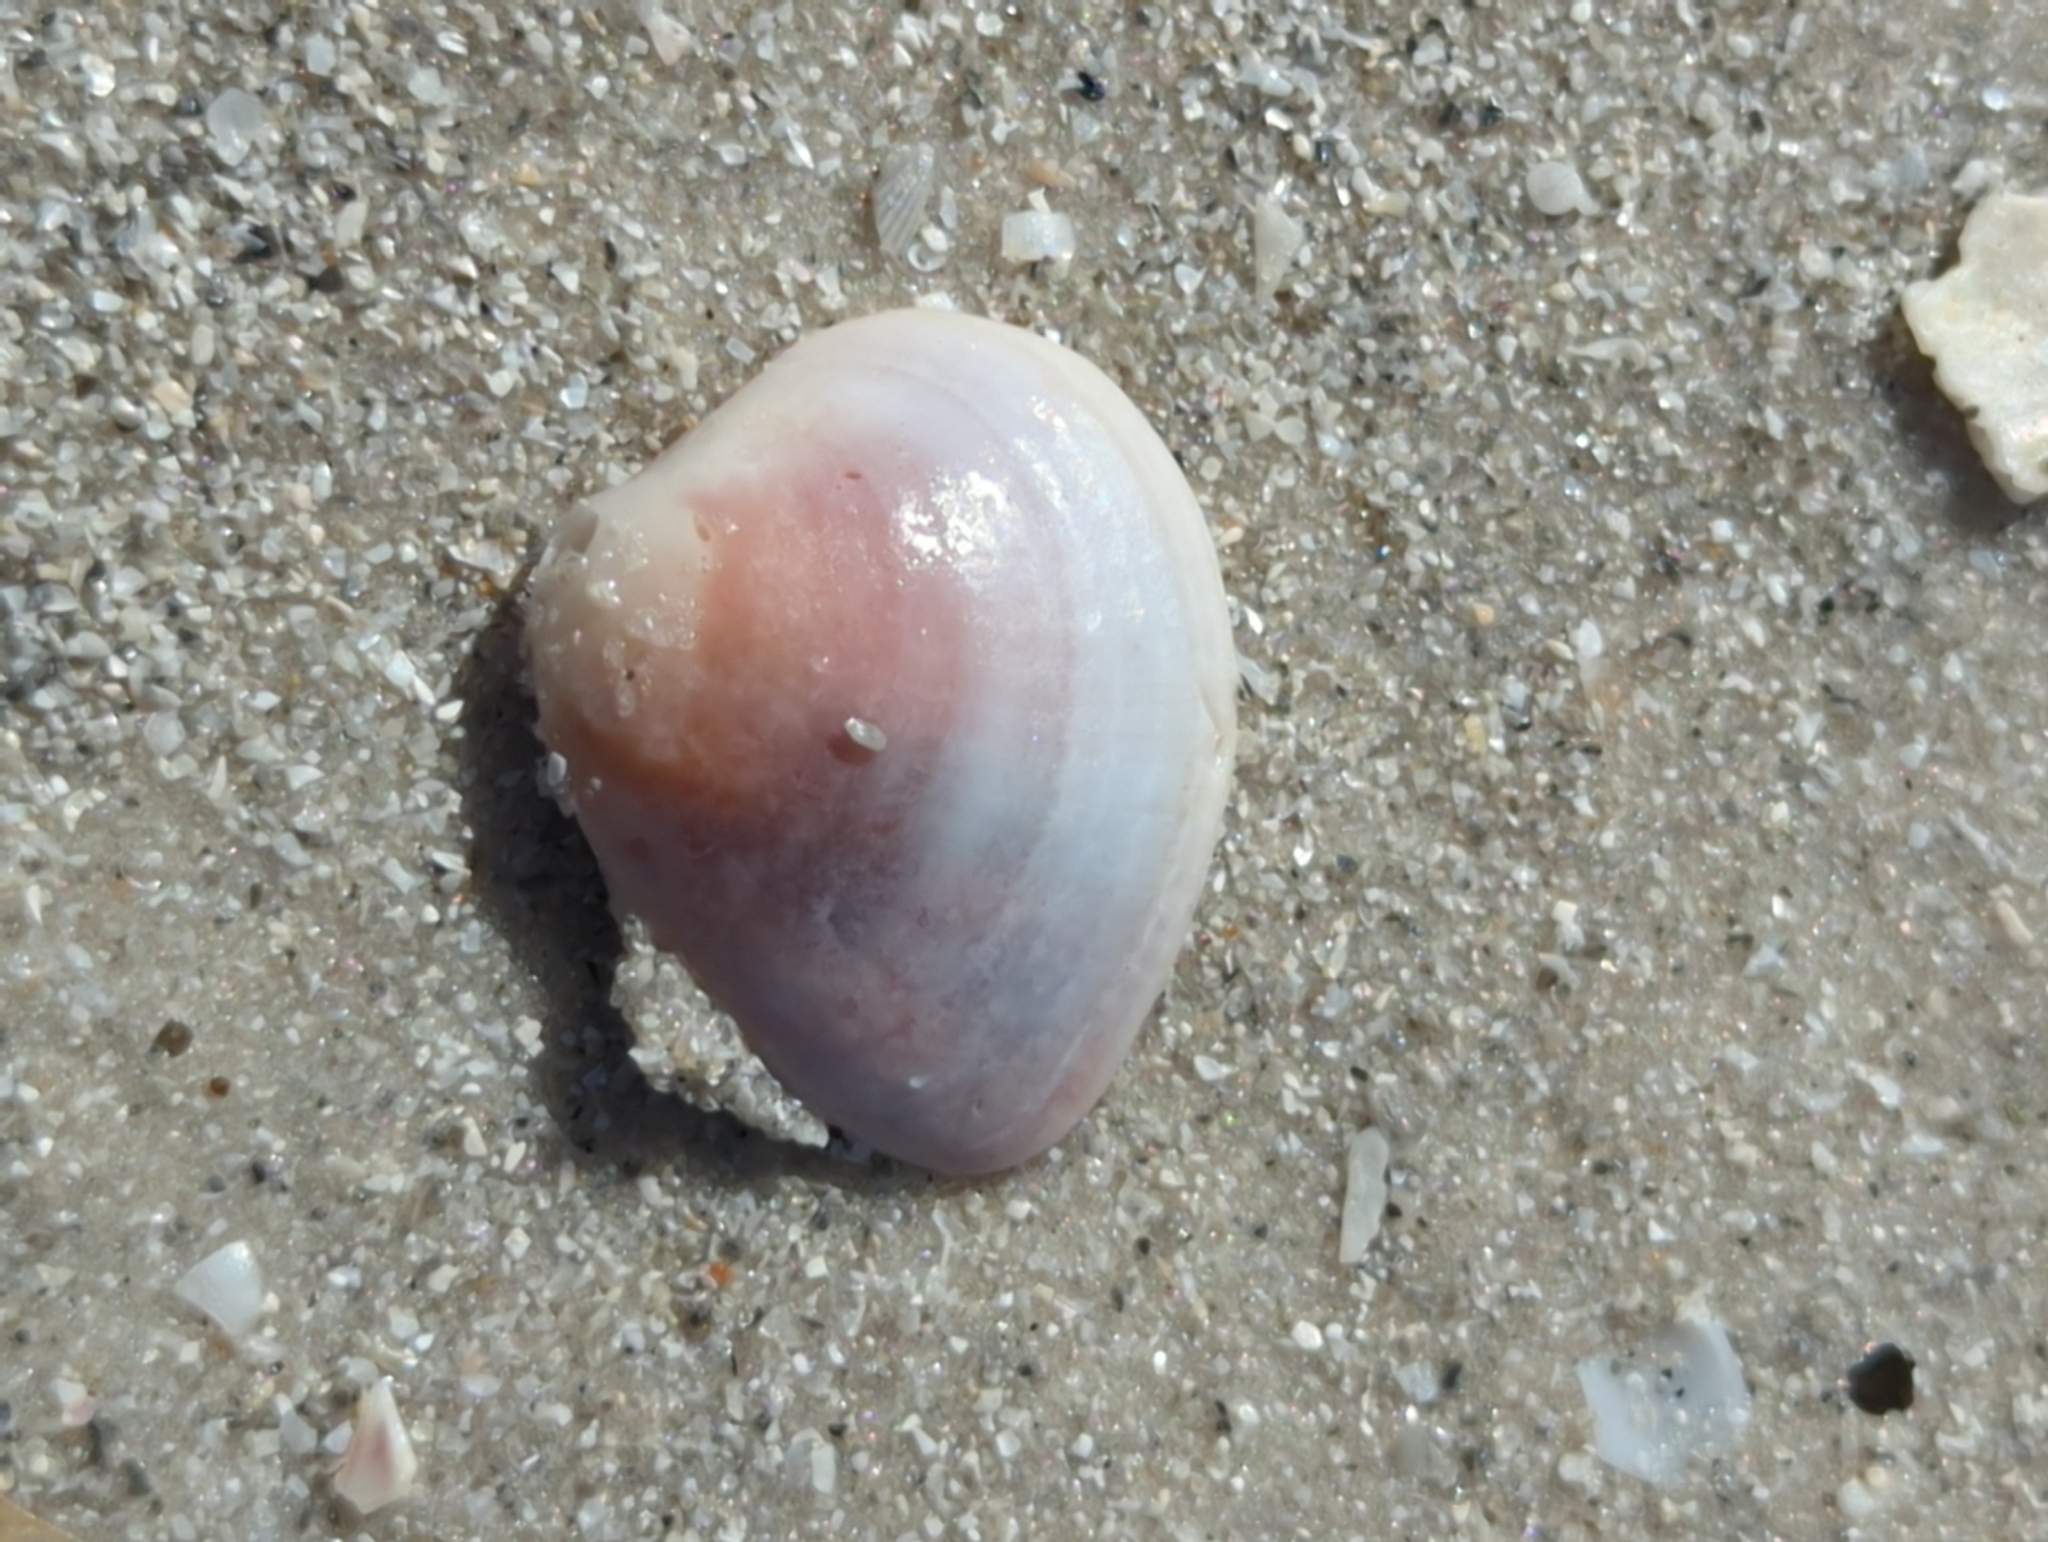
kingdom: Animalia
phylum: Mollusca
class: Bivalvia
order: Venerida
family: Veneridae
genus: Chione
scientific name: Chione elevata
